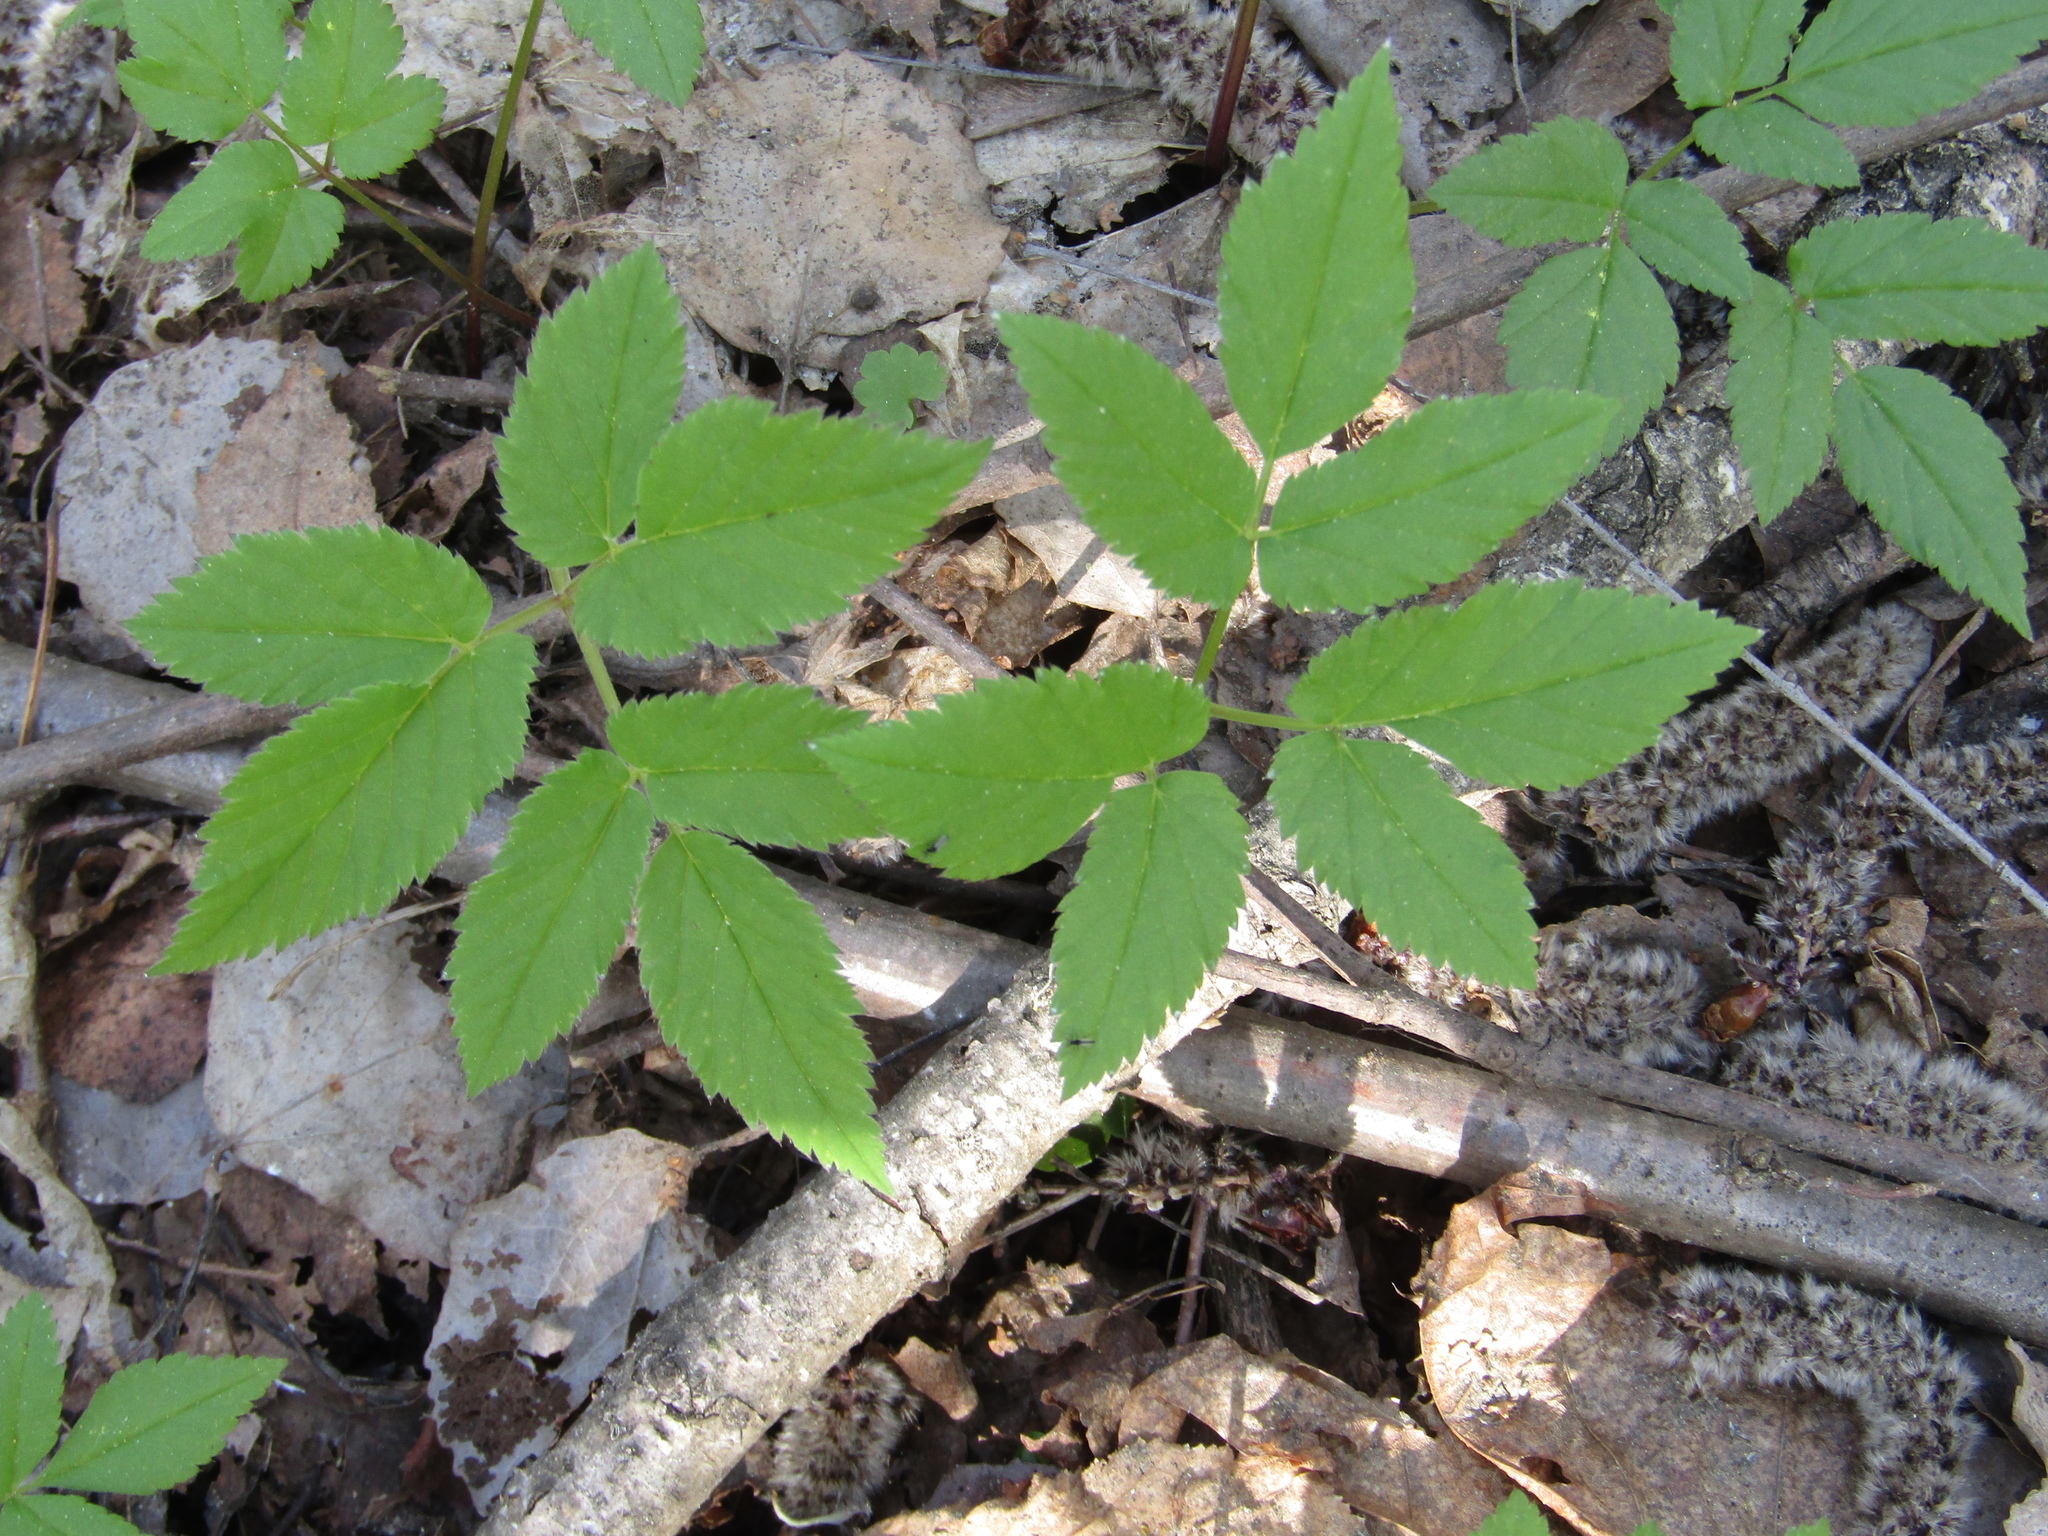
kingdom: Plantae
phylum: Tracheophyta
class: Magnoliopsida
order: Apiales
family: Apiaceae
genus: Aegopodium
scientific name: Aegopodium podagraria
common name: Ground-elder
